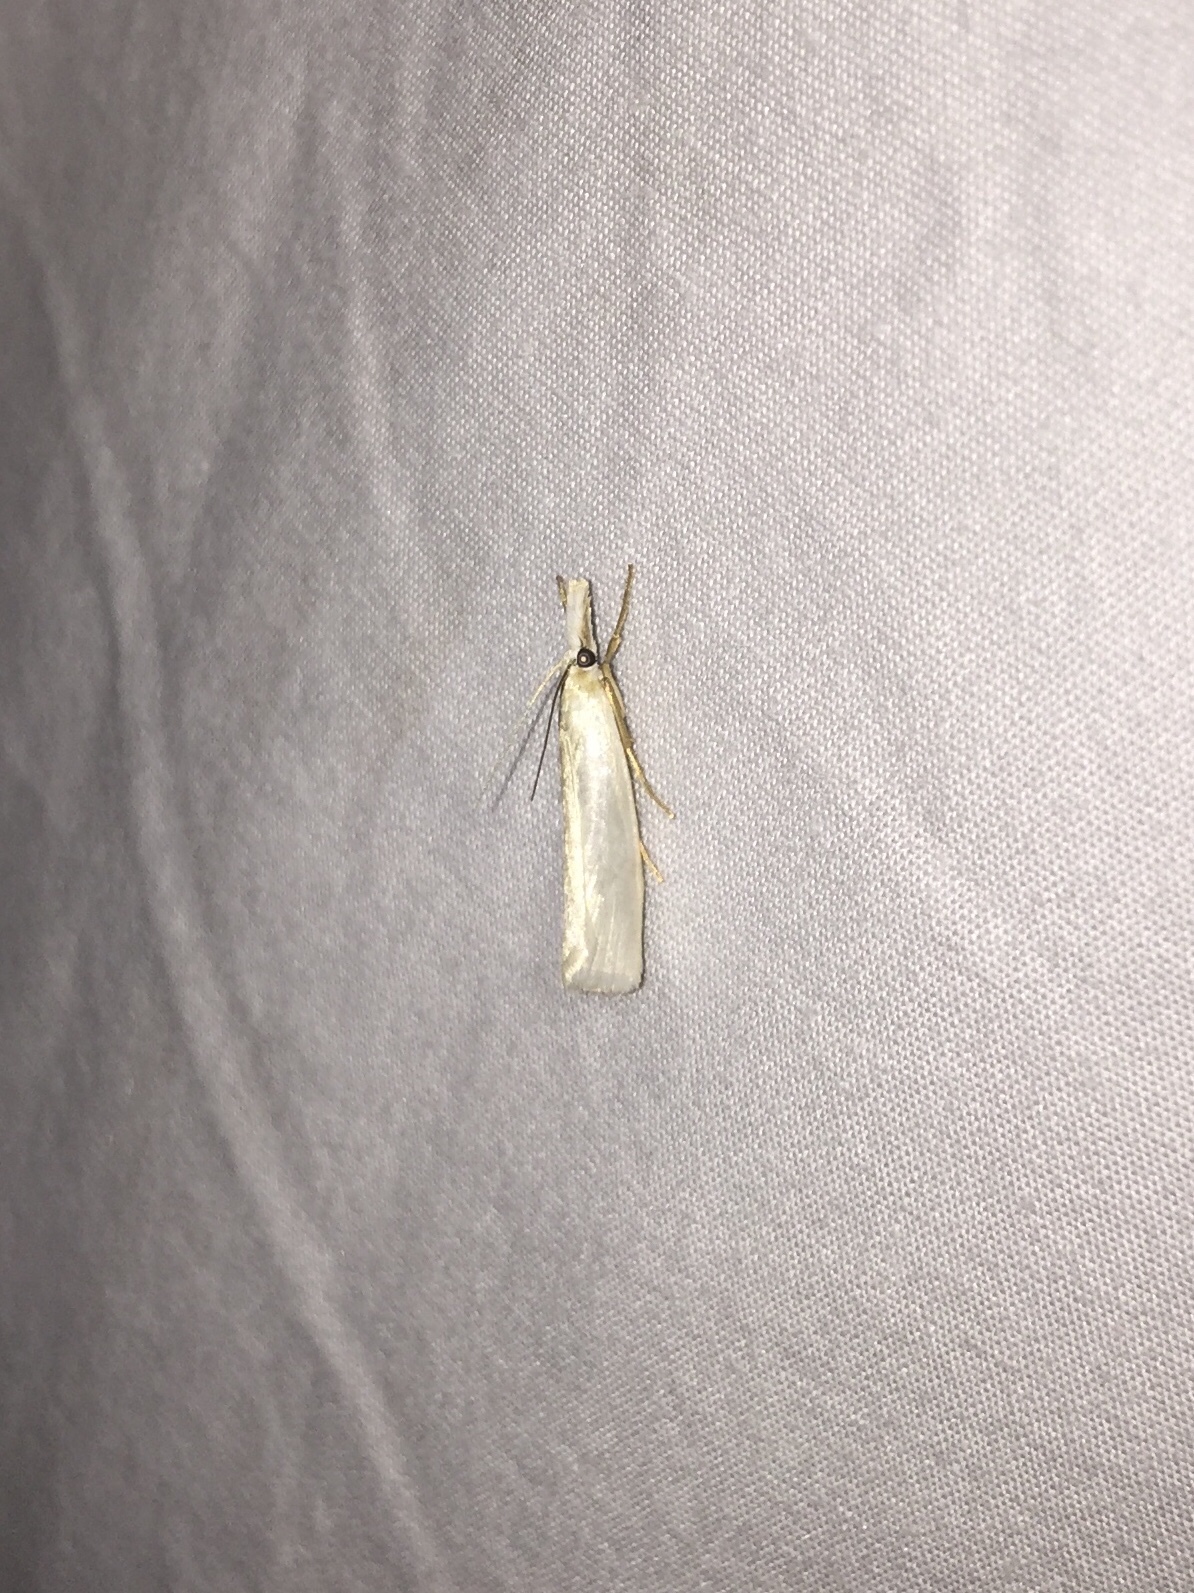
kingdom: Animalia
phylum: Arthropoda
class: Insecta
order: Lepidoptera
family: Crambidae
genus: Crambus
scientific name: Crambus perlellus
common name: Yellow satin veneer
